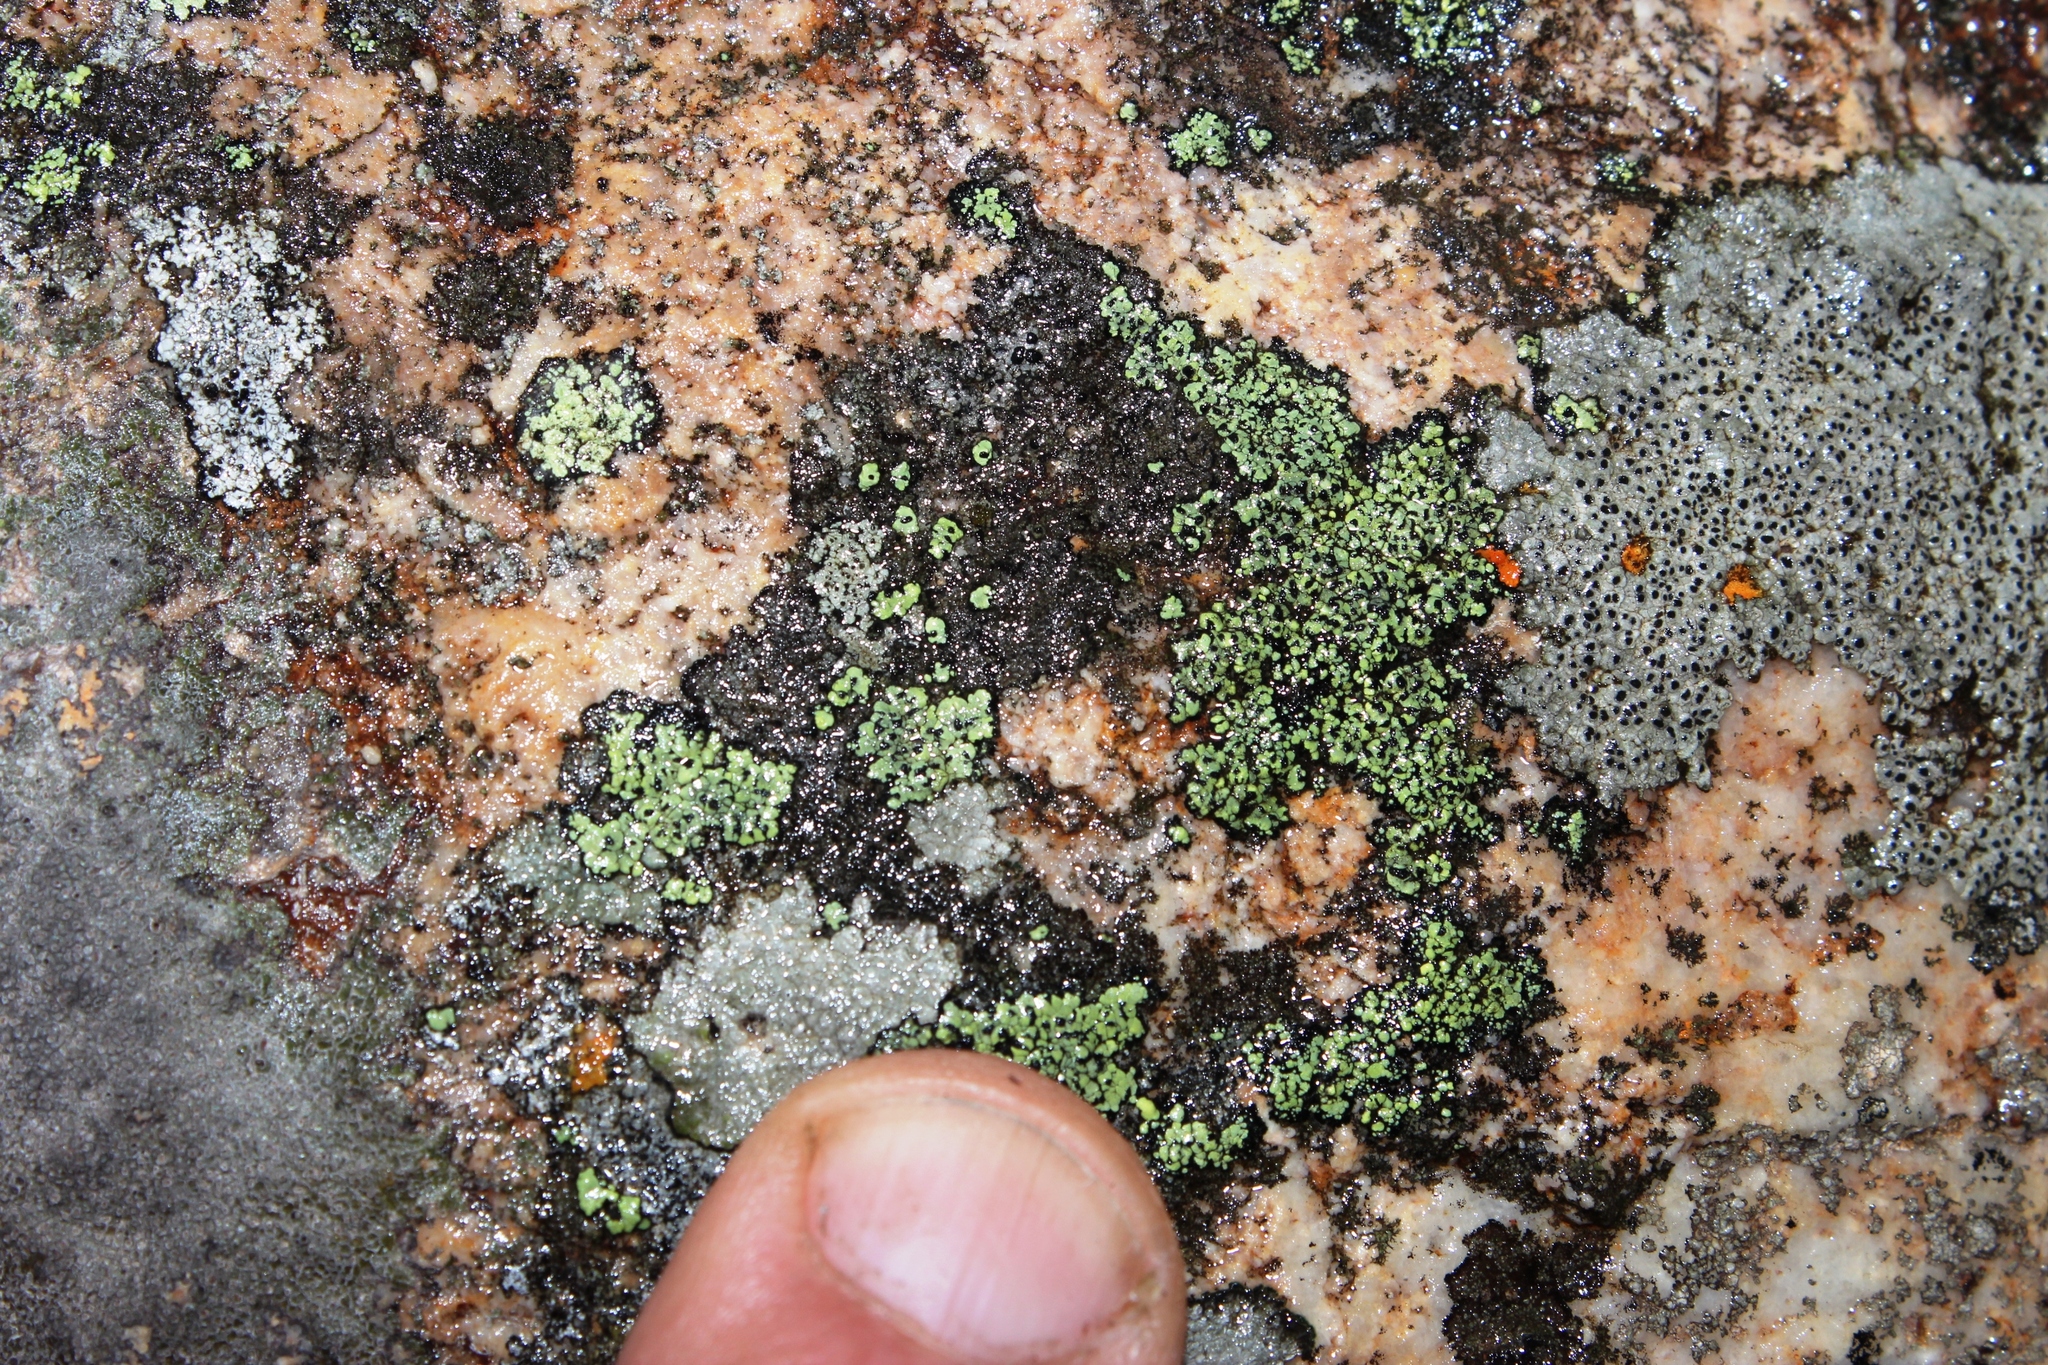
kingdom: Fungi
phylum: Ascomycota
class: Lecanoromycetes
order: Rhizocarpales
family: Rhizocarpaceae
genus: Rhizocarpon
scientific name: Rhizocarpon lecanorinum
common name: Crescent map lichen
